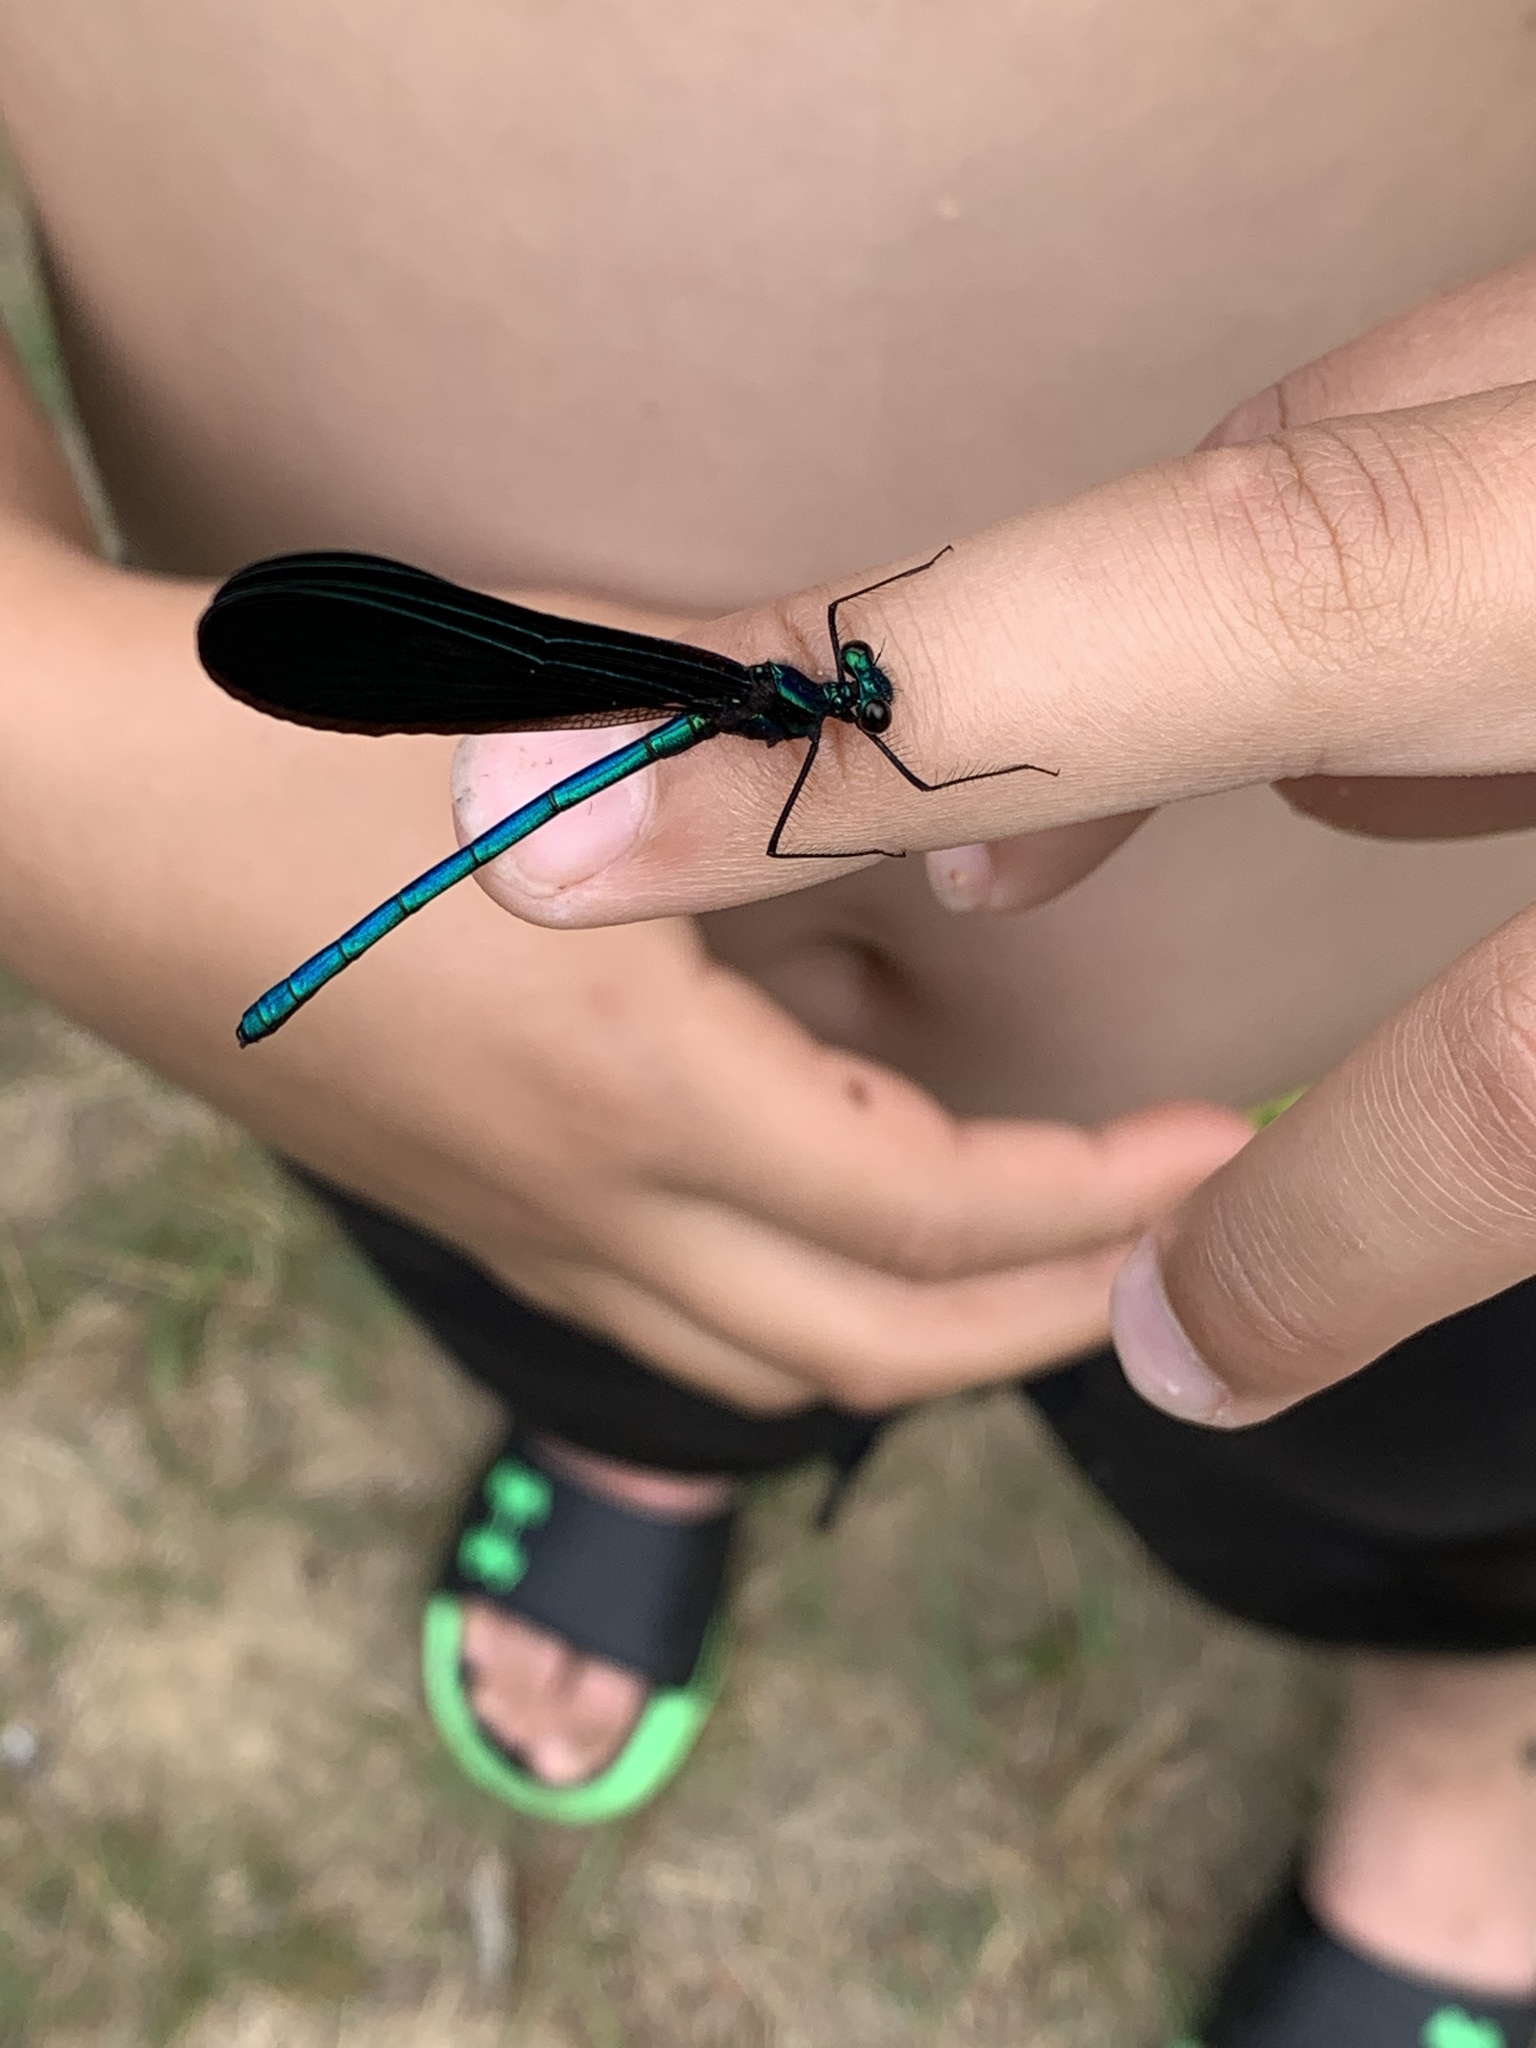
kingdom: Animalia
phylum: Arthropoda
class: Insecta
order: Odonata
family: Calopterygidae
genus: Calopteryx
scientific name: Calopteryx maculata
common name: Ebony jewelwing
